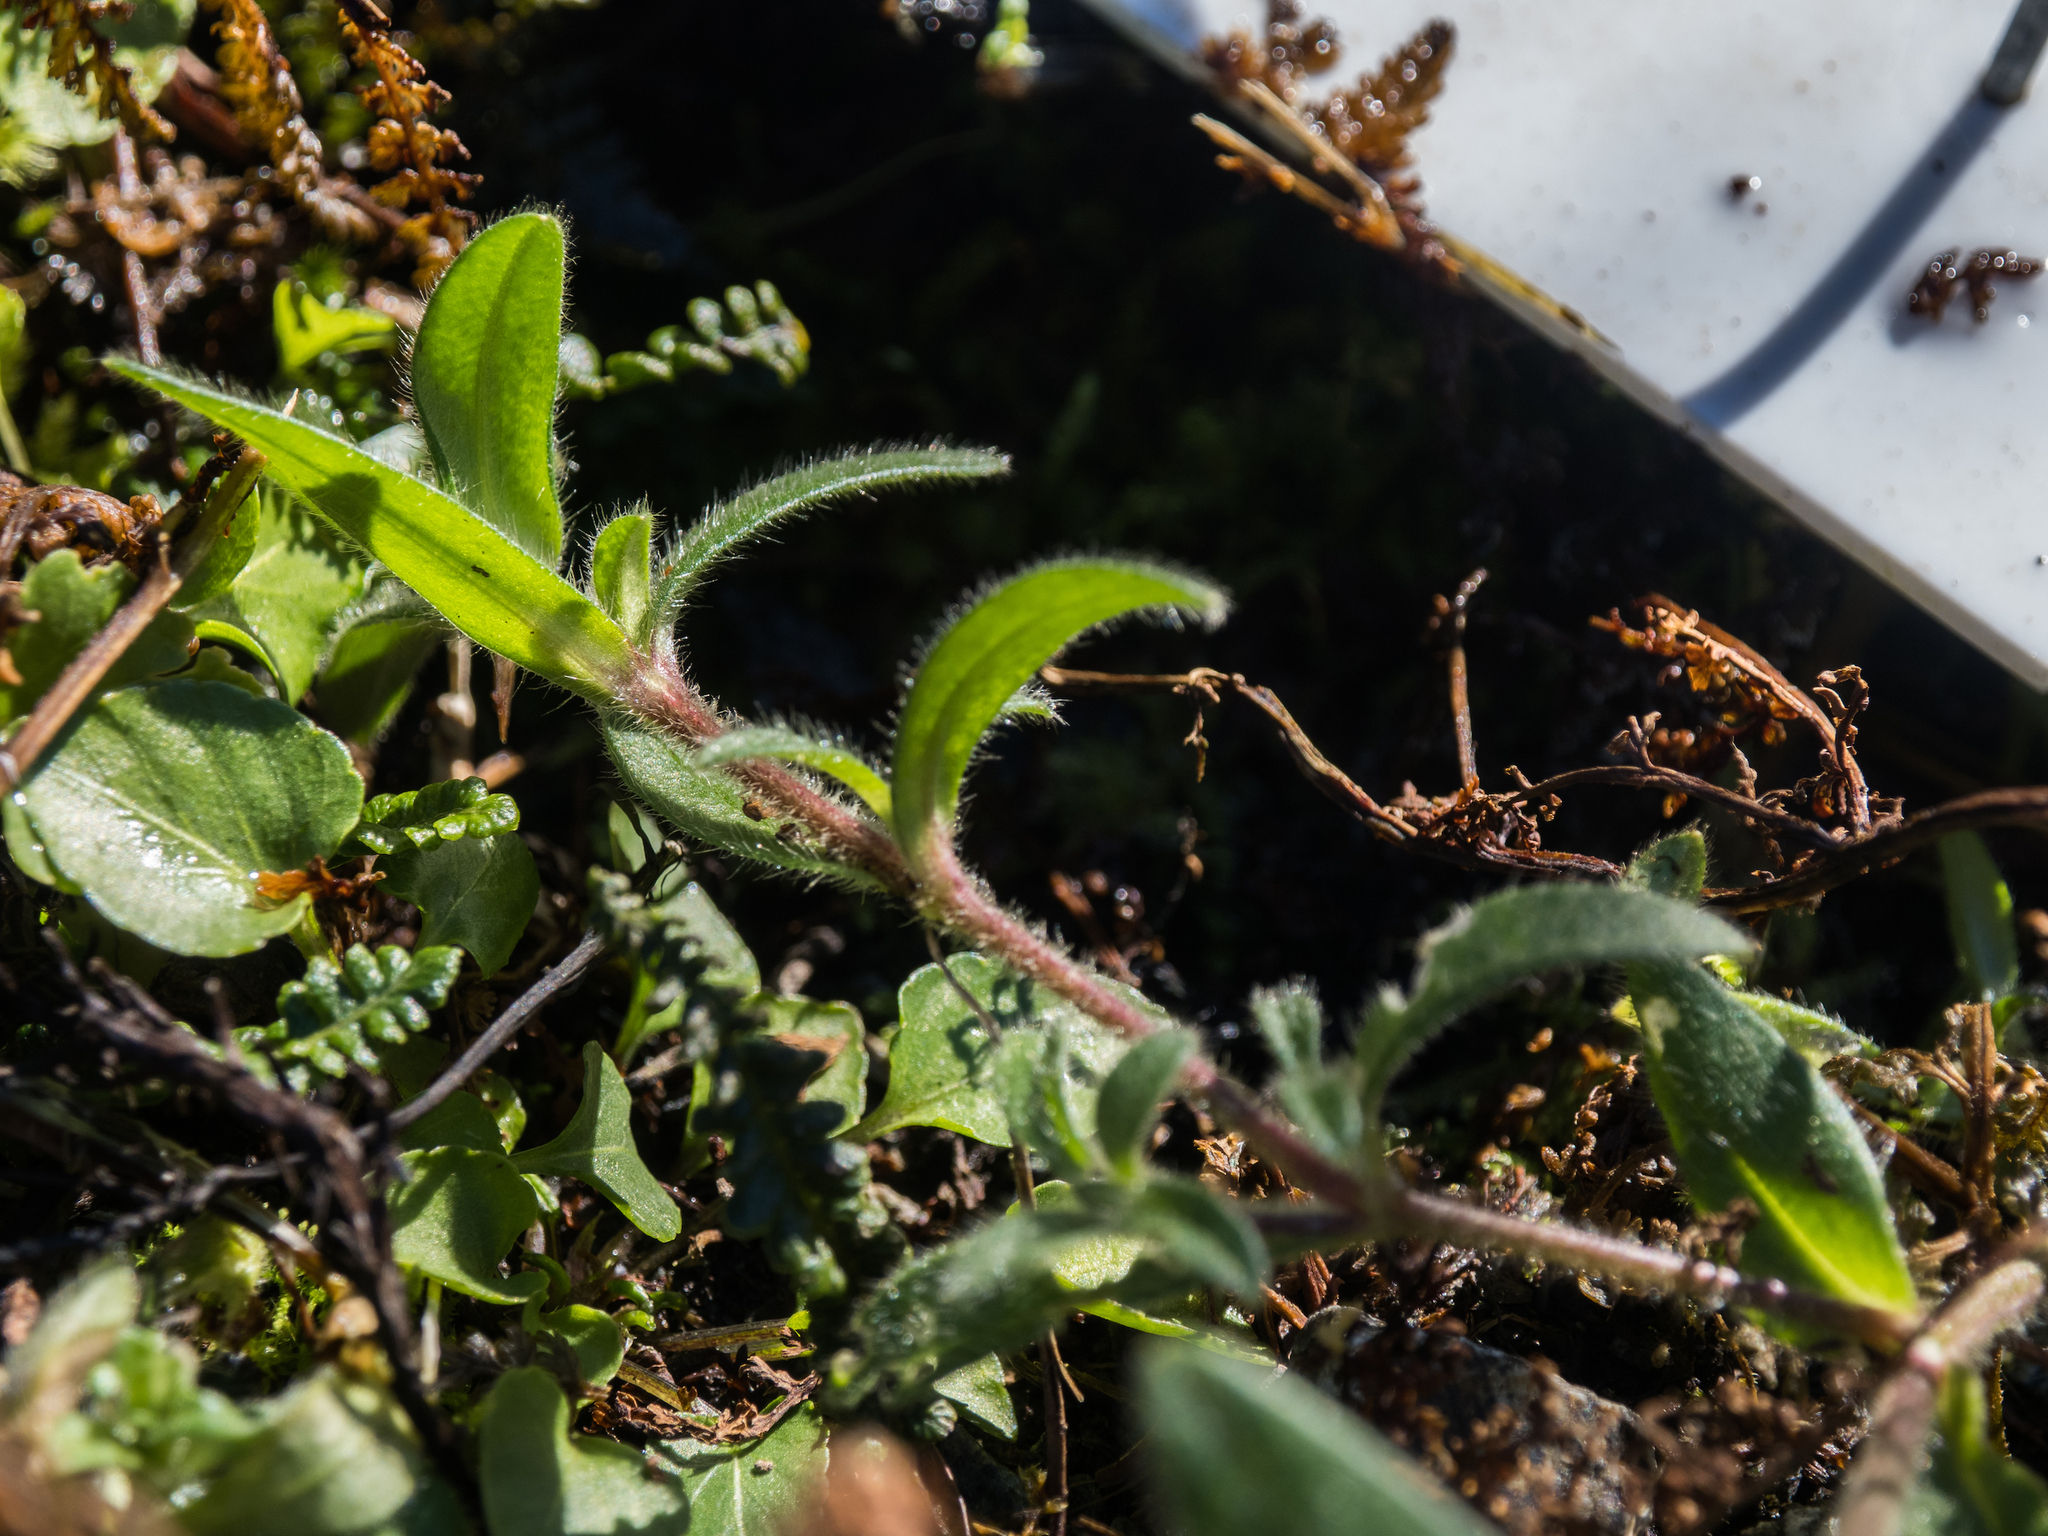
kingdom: Plantae
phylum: Tracheophyta
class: Magnoliopsida
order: Caryophyllales
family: Caryophyllaceae
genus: Cerastium
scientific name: Cerastium fontanum
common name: Common mouse-ear
